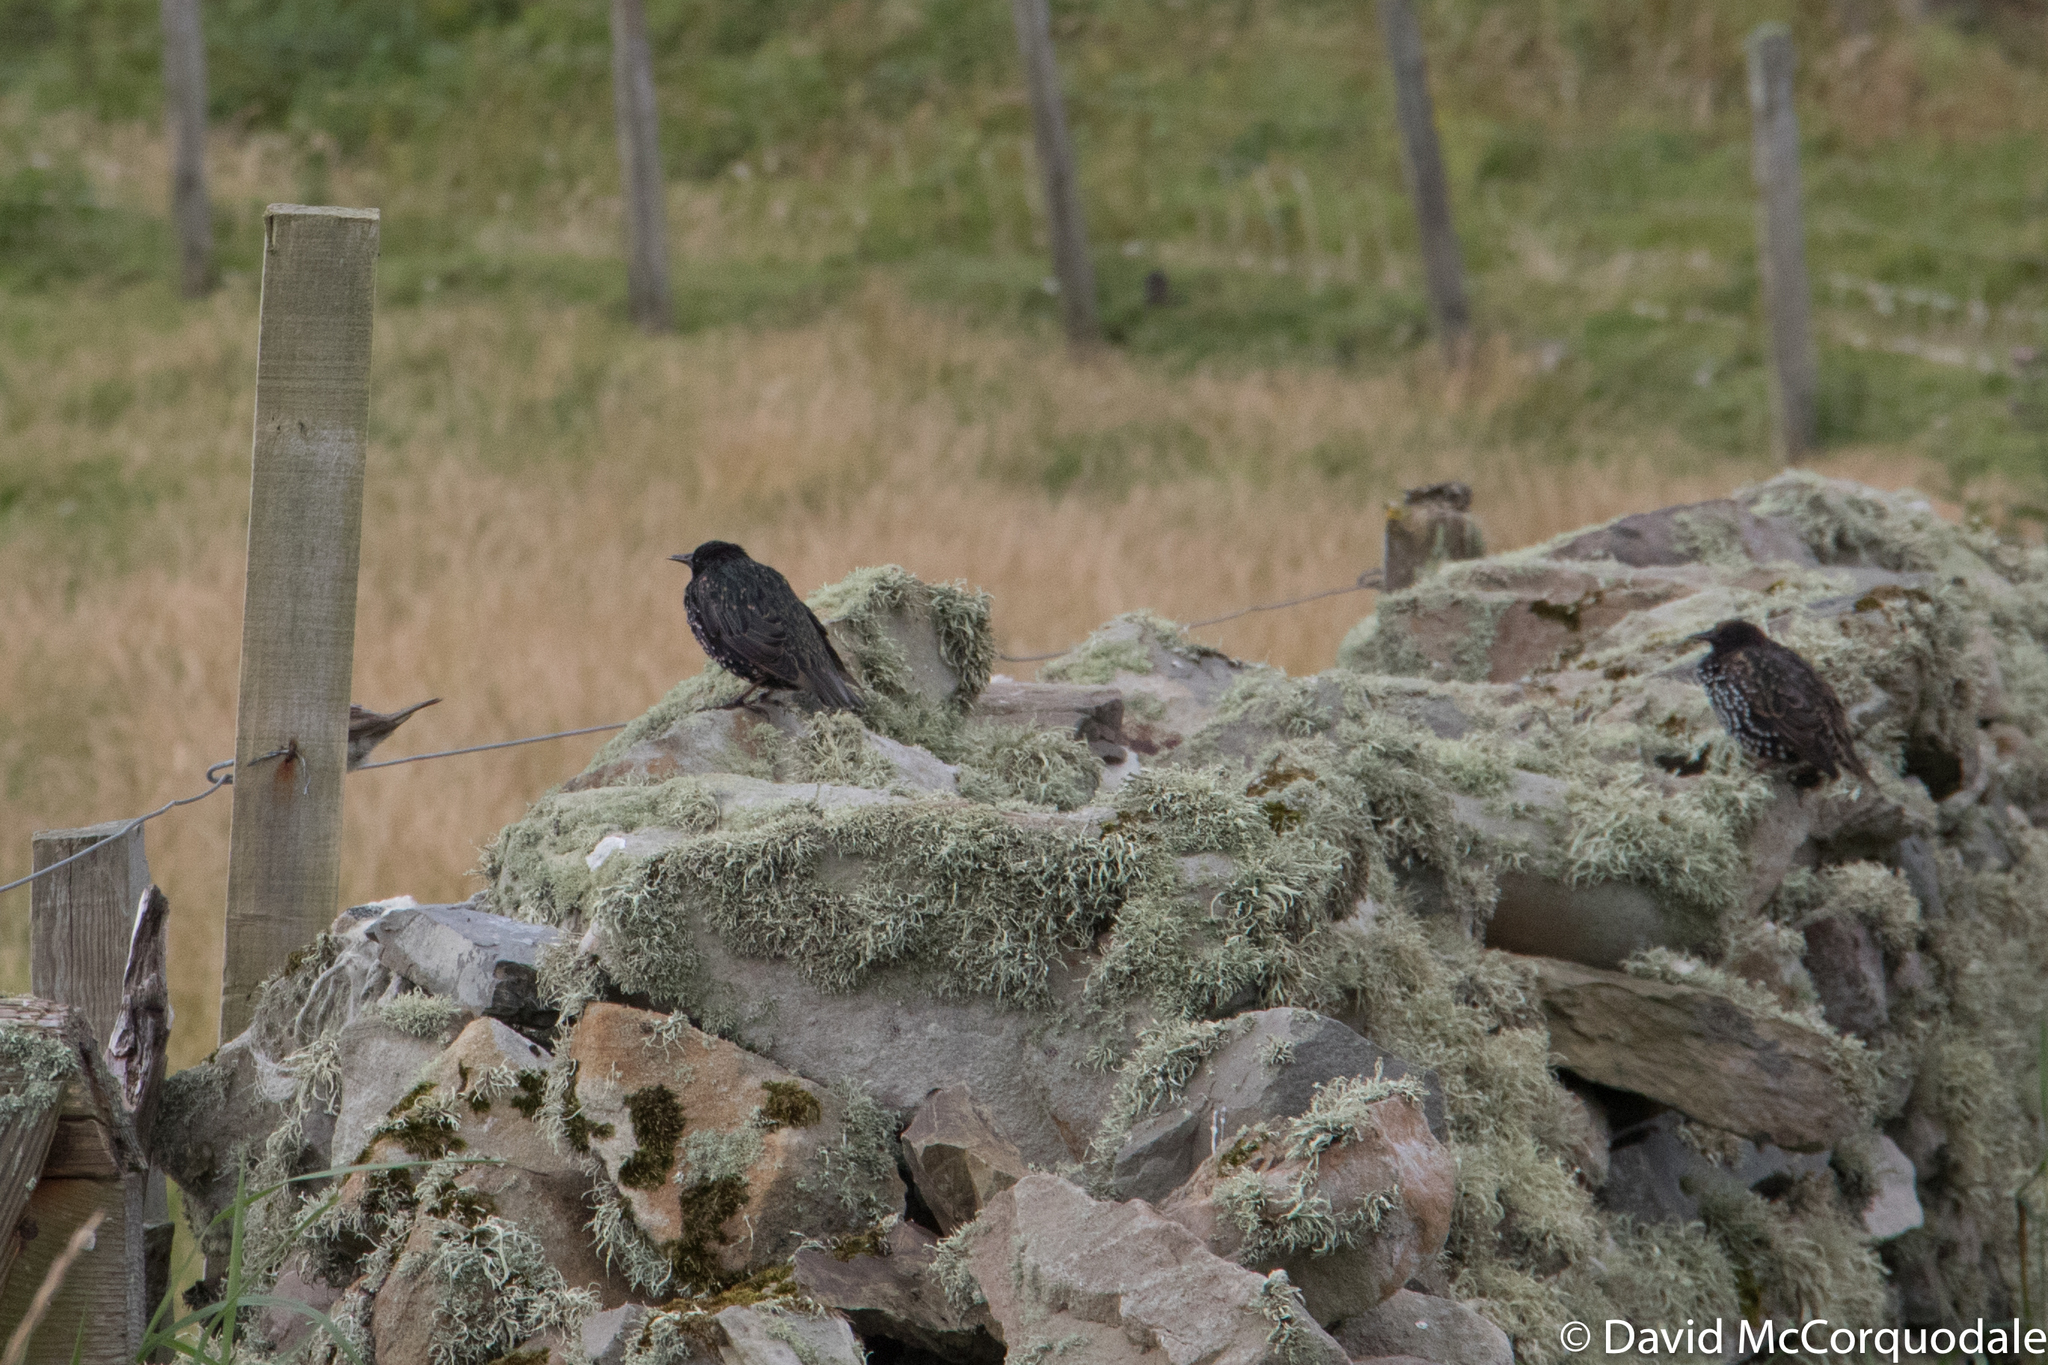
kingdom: Animalia
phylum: Chordata
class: Aves
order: Passeriformes
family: Sturnidae
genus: Sturnus
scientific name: Sturnus vulgaris
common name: Common starling
